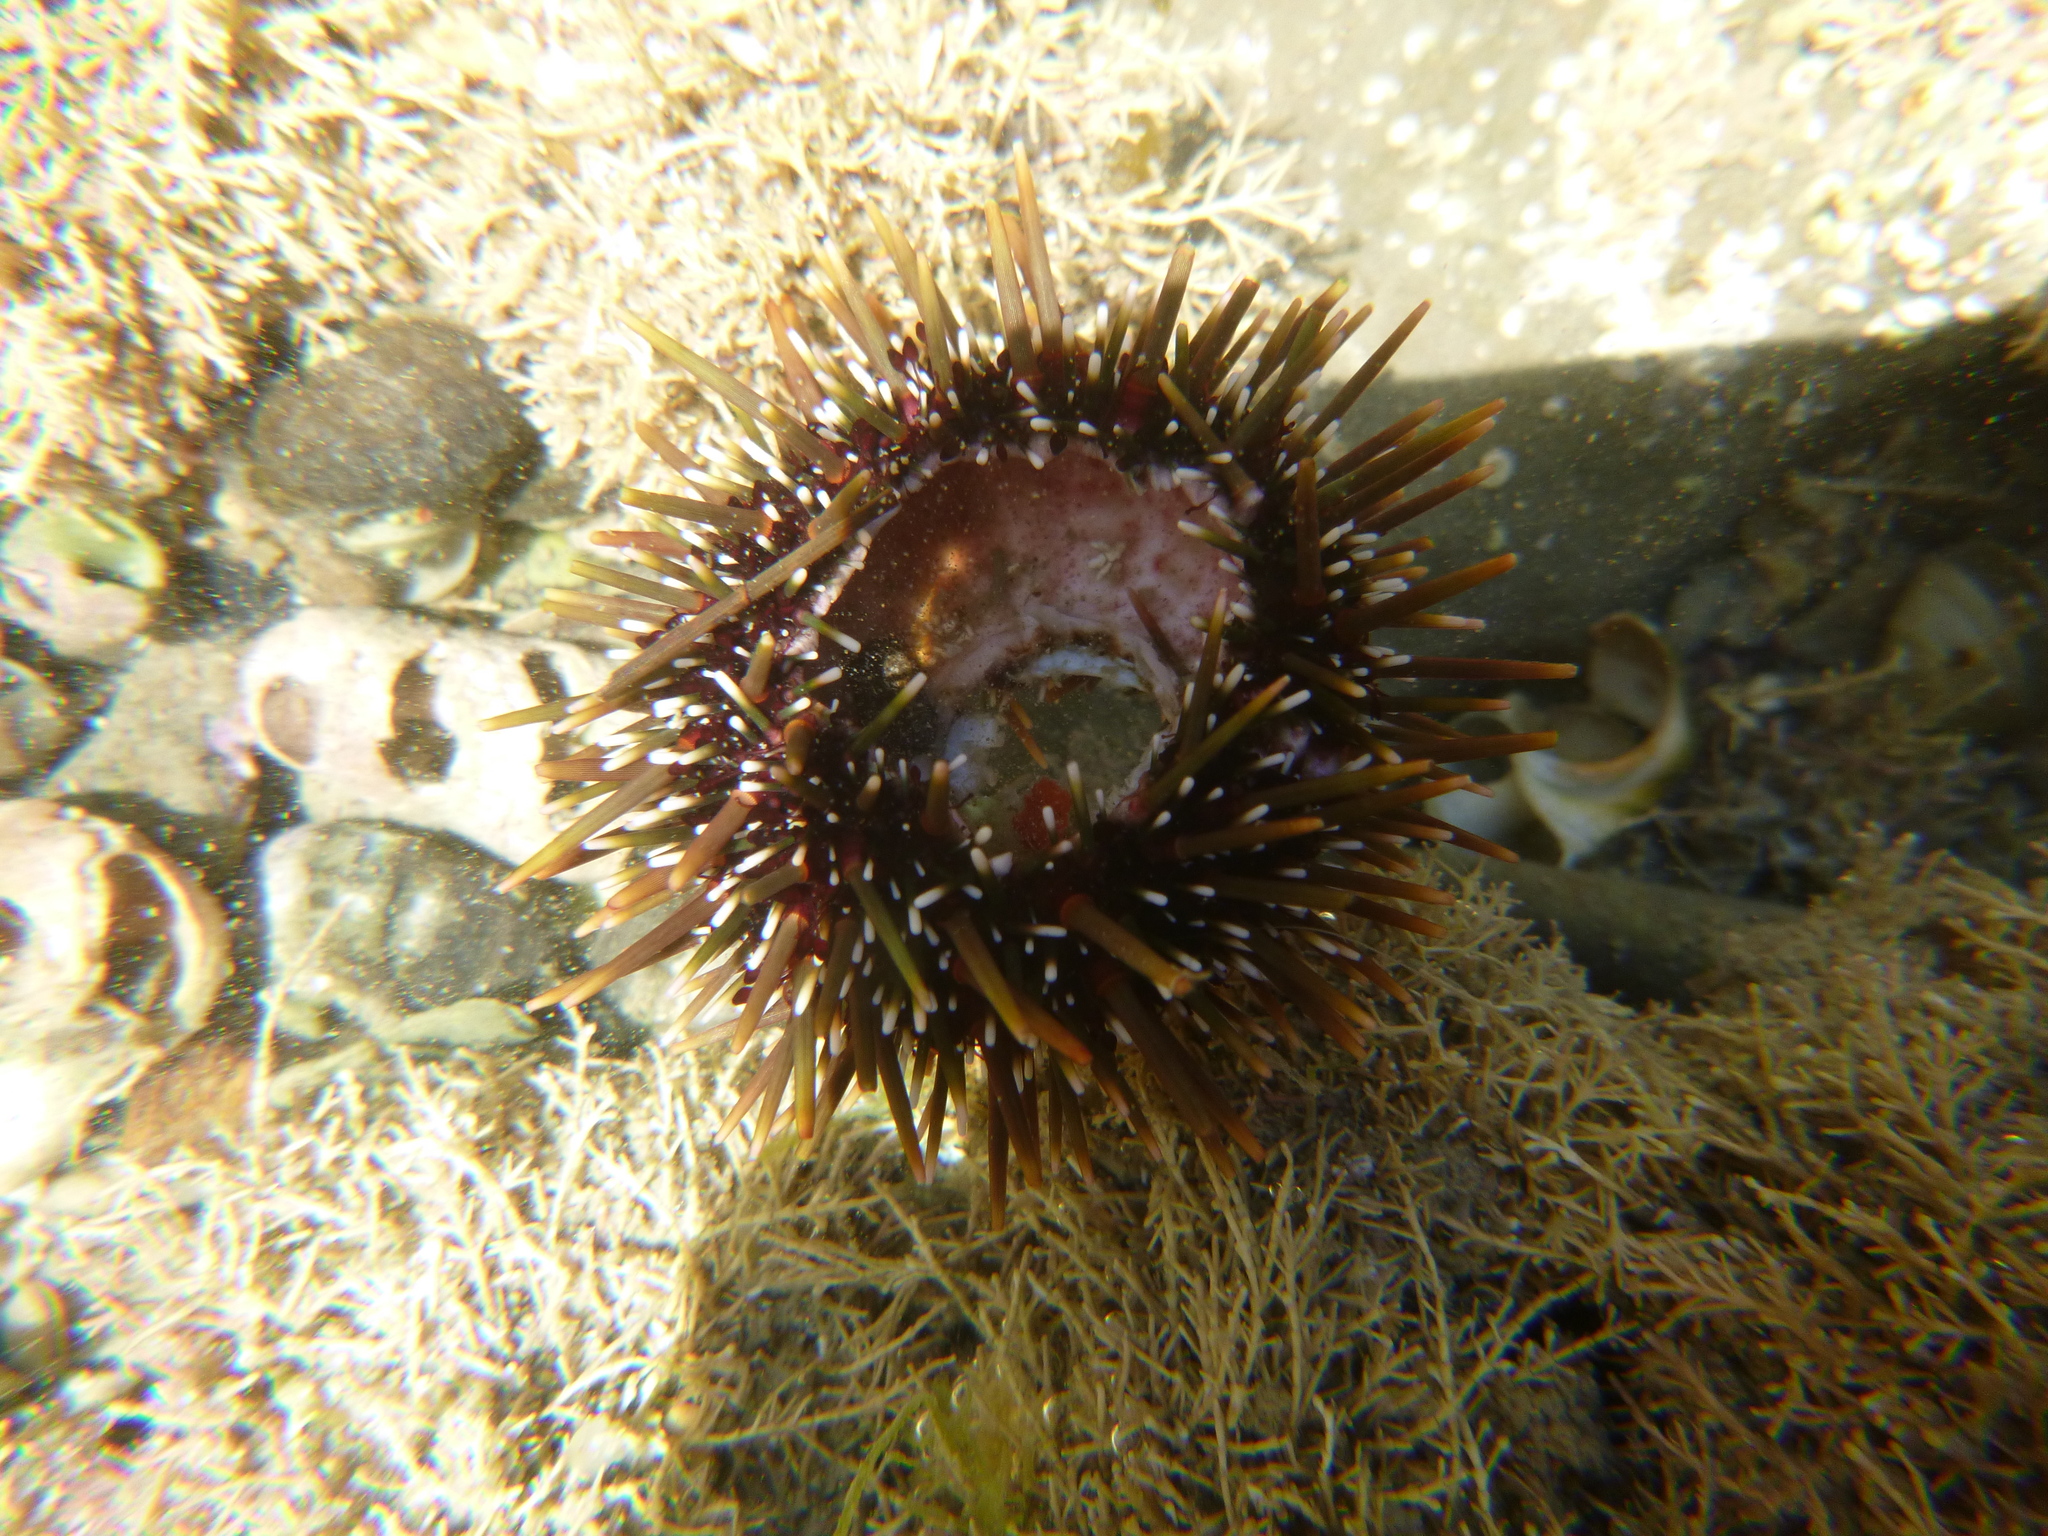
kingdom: Animalia
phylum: Echinodermata
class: Echinoidea
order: Camarodonta
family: Echinometridae
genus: Evechinus
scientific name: Evechinus chloroticus
